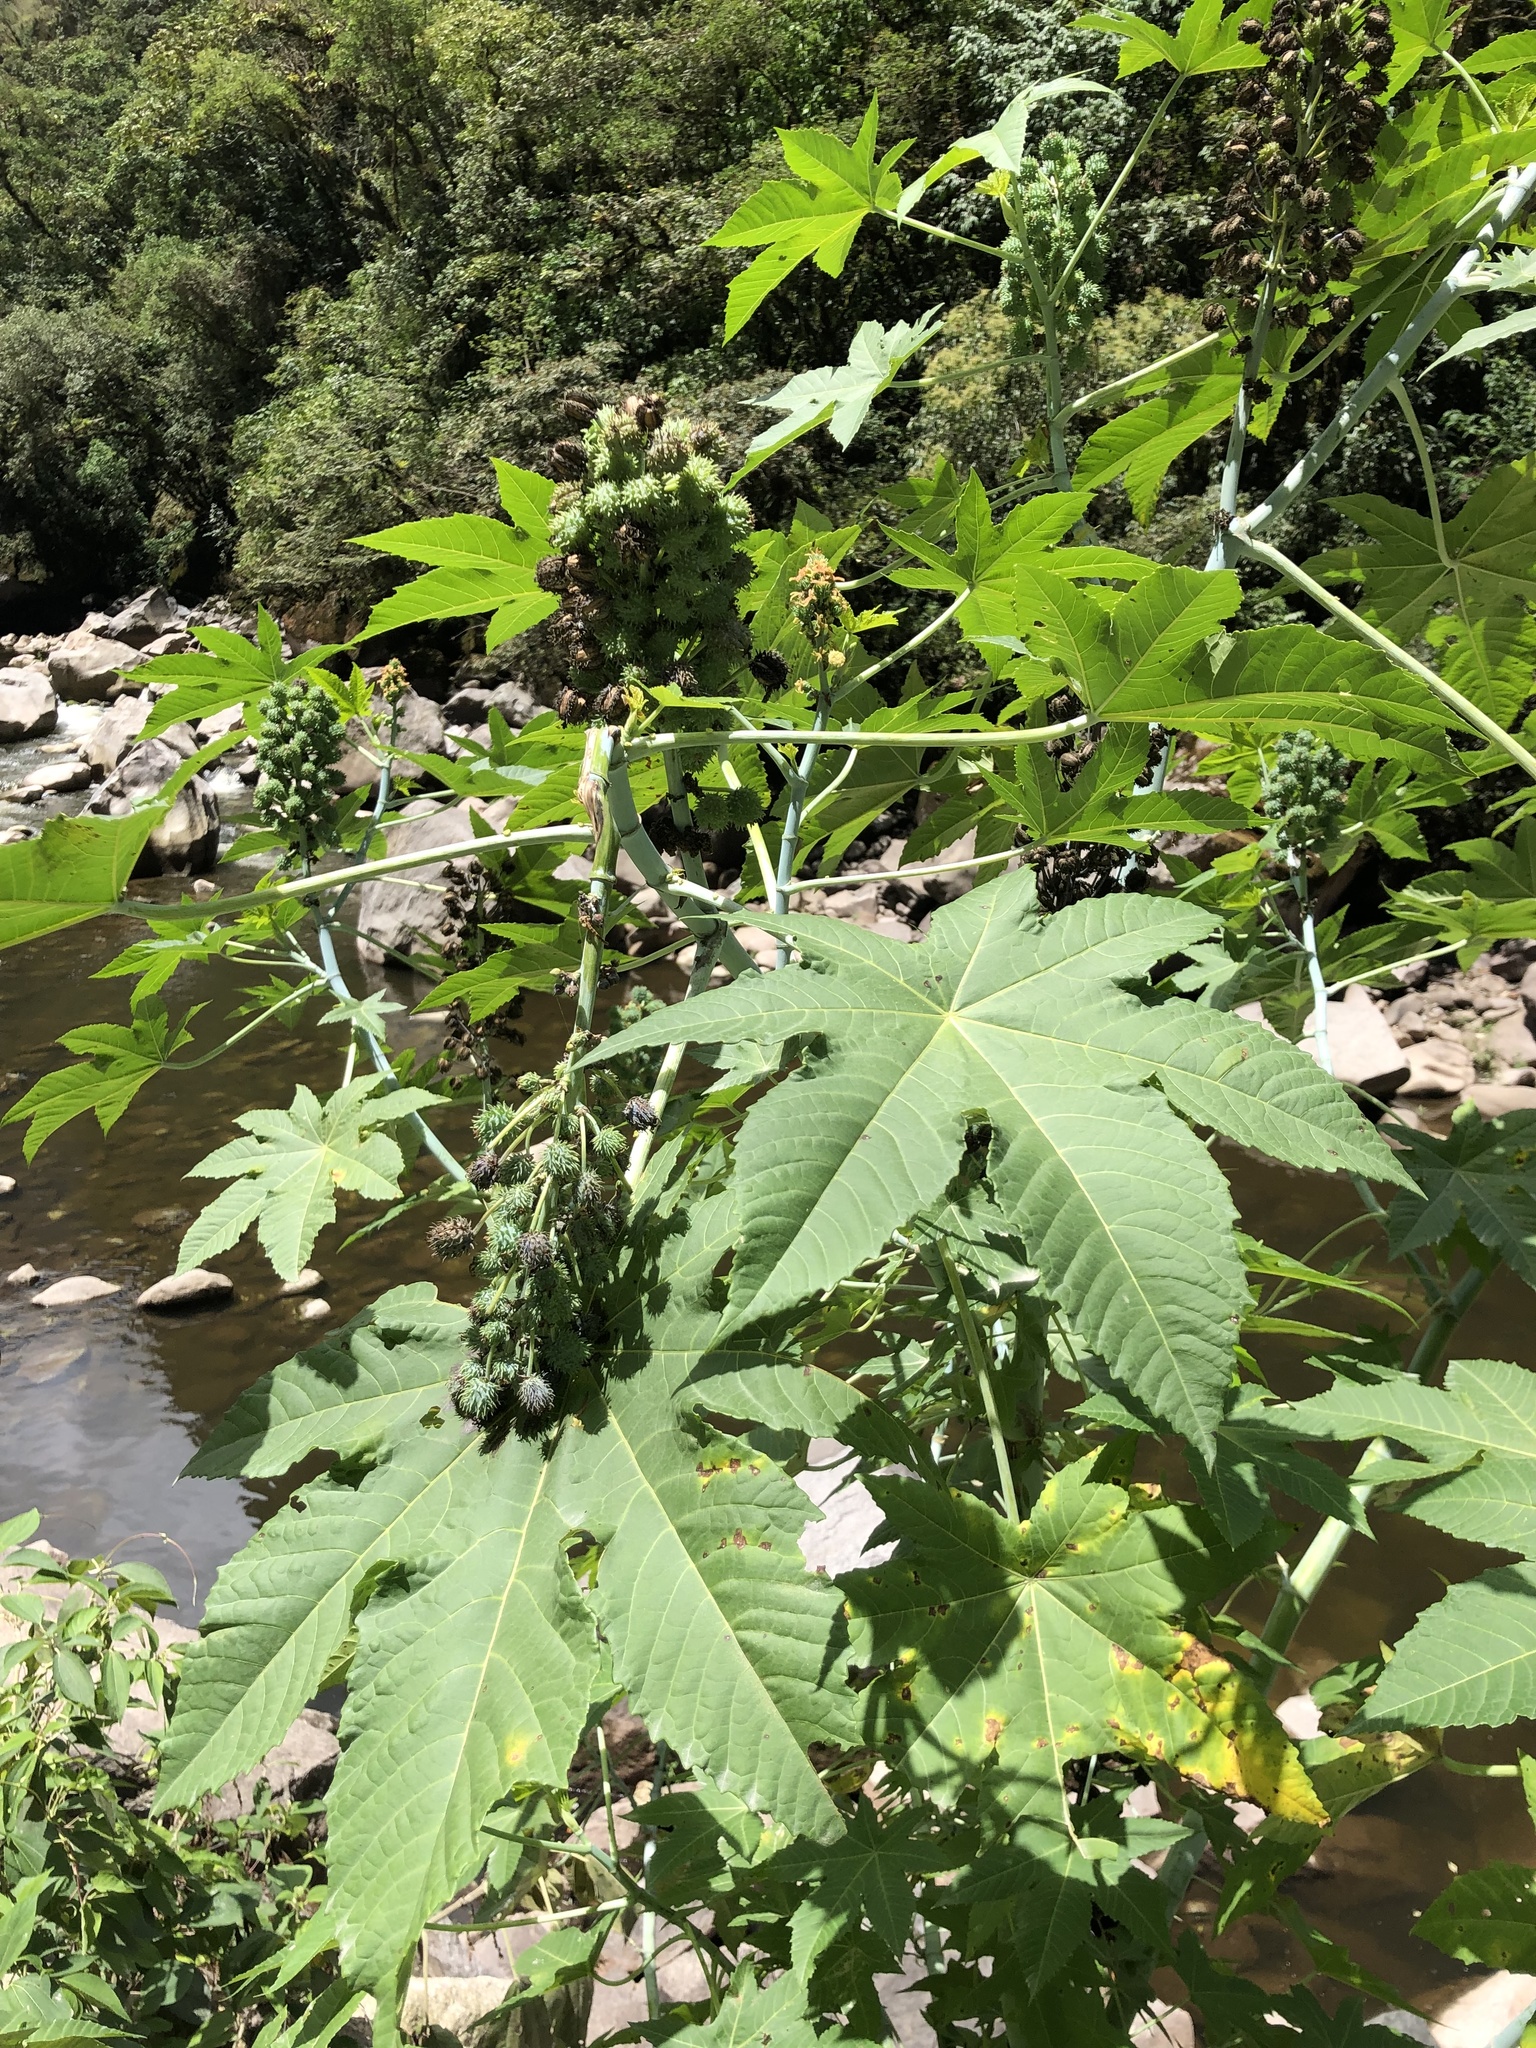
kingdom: Plantae
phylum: Tracheophyta
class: Magnoliopsida
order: Malpighiales
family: Euphorbiaceae
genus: Ricinus
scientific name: Ricinus communis
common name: Castor-oil-plant
